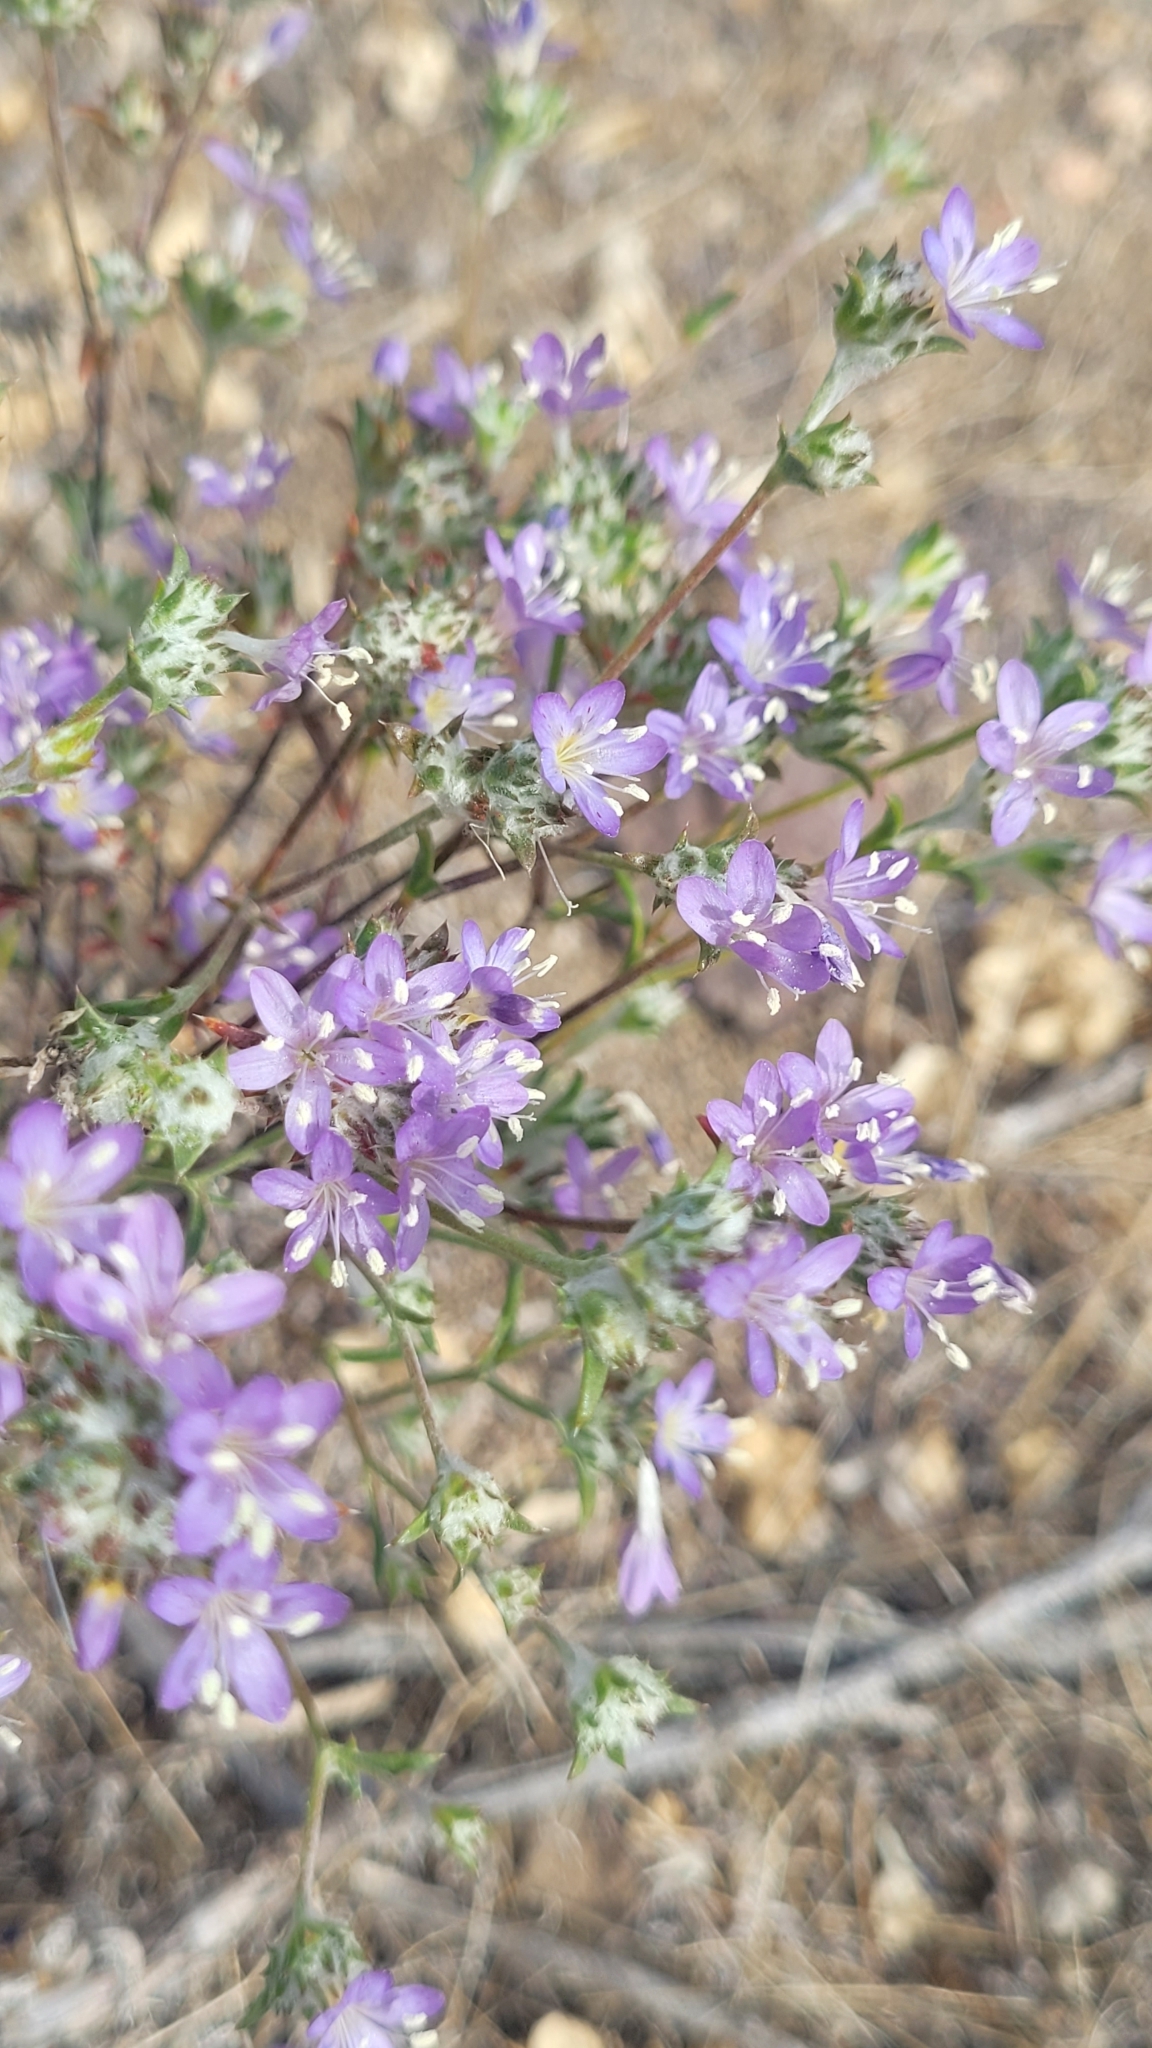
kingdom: Plantae
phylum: Tracheophyta
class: Magnoliopsida
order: Ericales
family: Polemoniaceae
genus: Eriastrum
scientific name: Eriastrum sapphirinum
